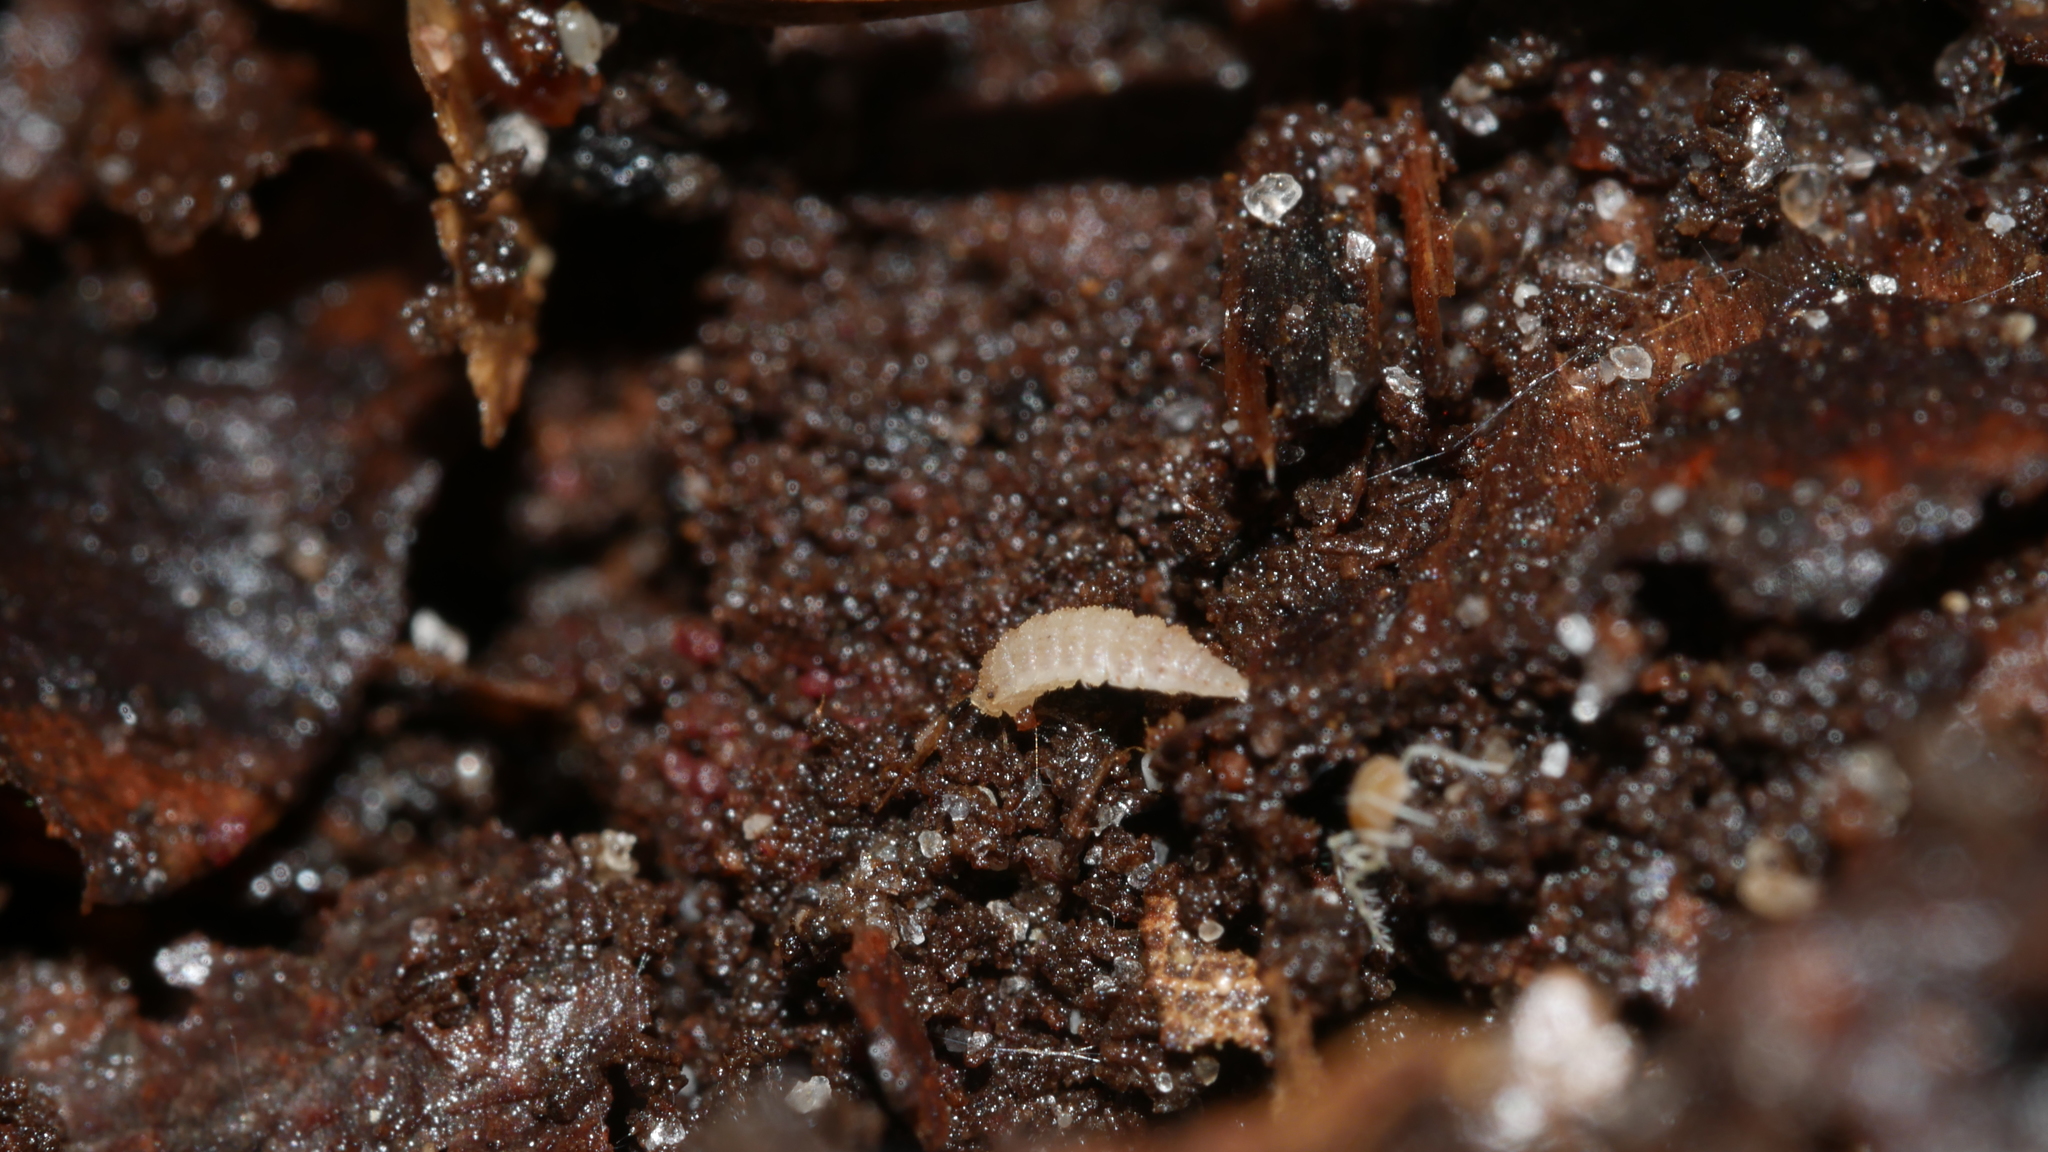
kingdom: Animalia
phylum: Arthropoda
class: Malacostraca
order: Isopoda
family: Trichoniscidae
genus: Haplophthalmus
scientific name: Haplophthalmus danicus
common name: Pillbug
